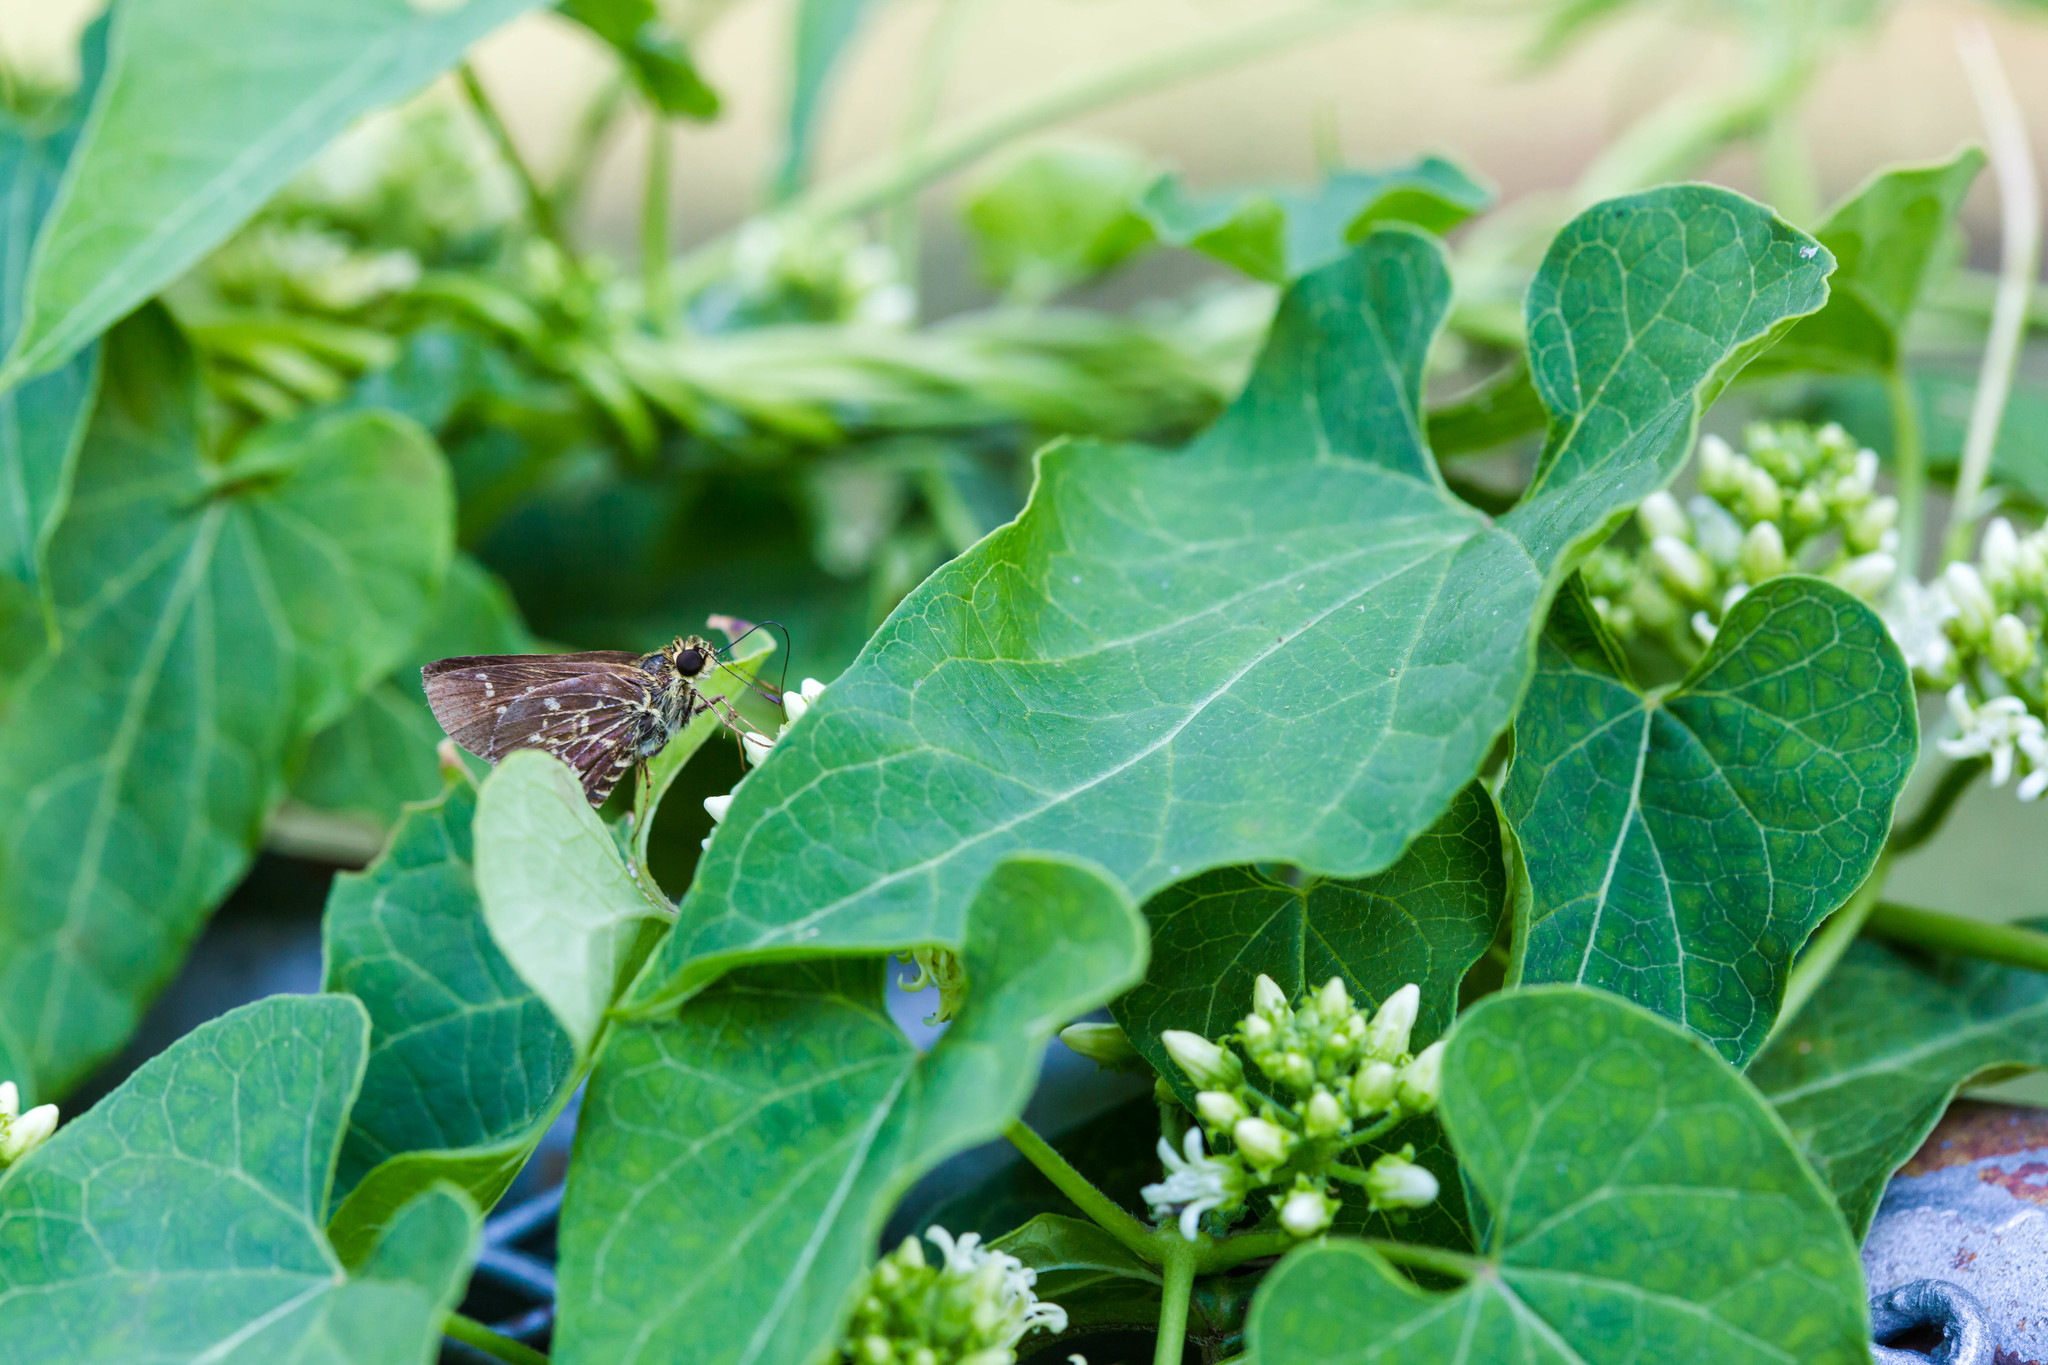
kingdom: Animalia
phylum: Arthropoda
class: Insecta
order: Lepidoptera
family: Hesperiidae
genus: Mastor
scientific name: Mastor aesculapius
